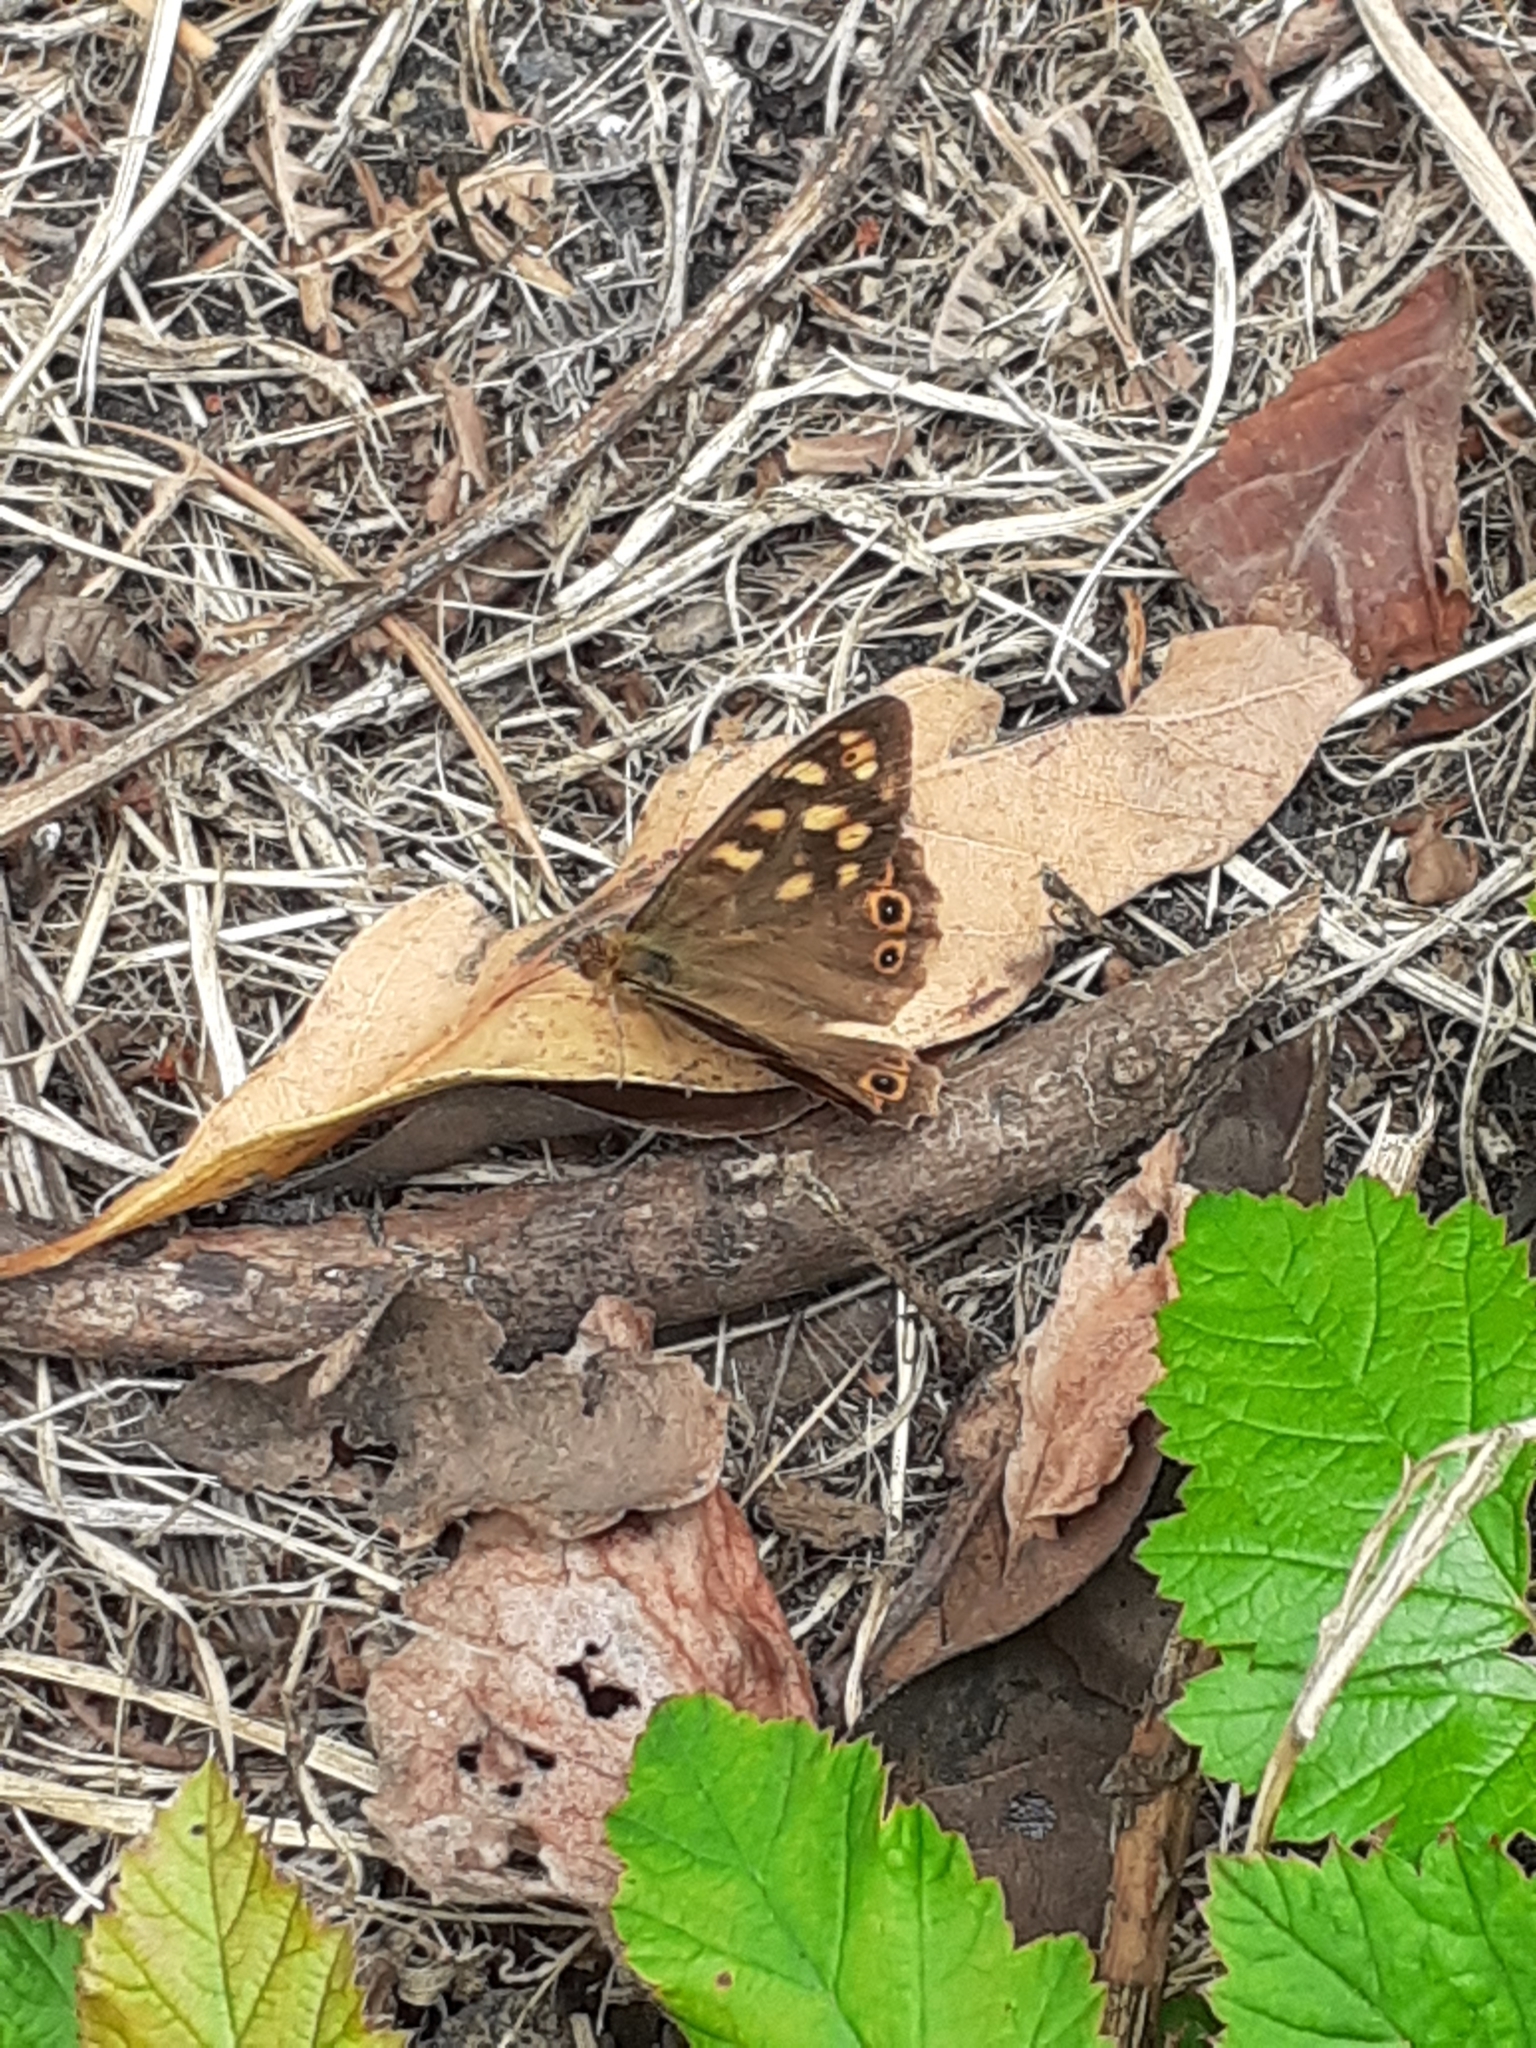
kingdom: Animalia
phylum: Arthropoda
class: Insecta
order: Lepidoptera
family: Nymphalidae
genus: Pararge
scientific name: Pararge aegeria
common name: Speckled wood
